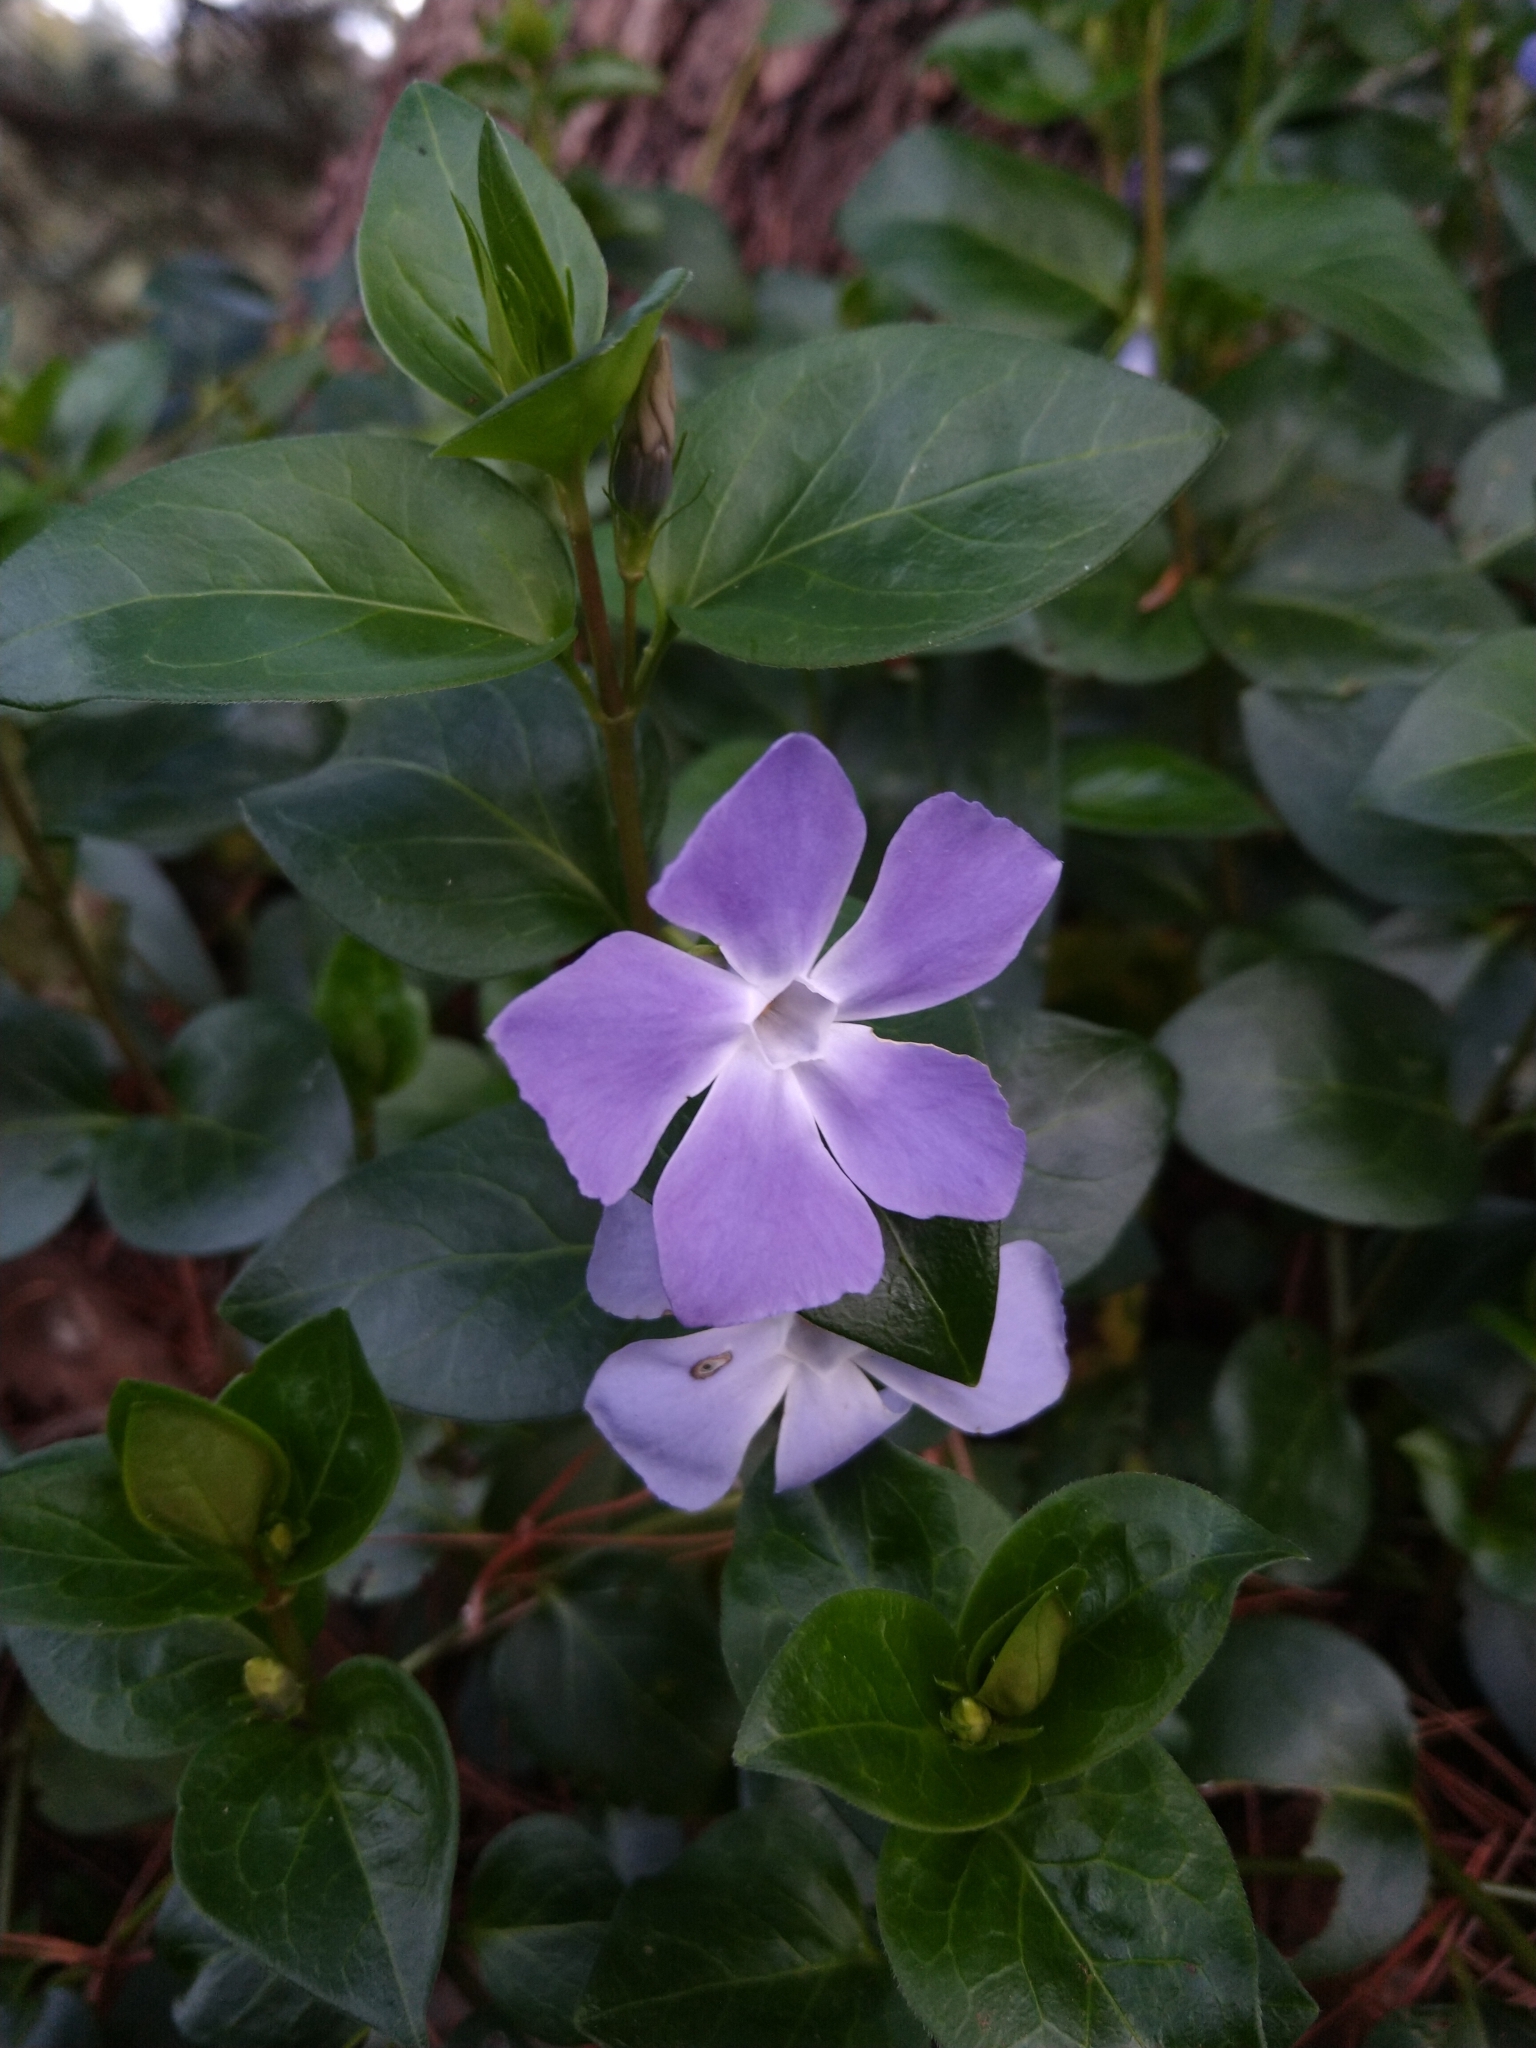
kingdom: Plantae
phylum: Tracheophyta
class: Magnoliopsida
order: Gentianales
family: Apocynaceae
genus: Vinca
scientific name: Vinca major
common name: Greater periwinkle
